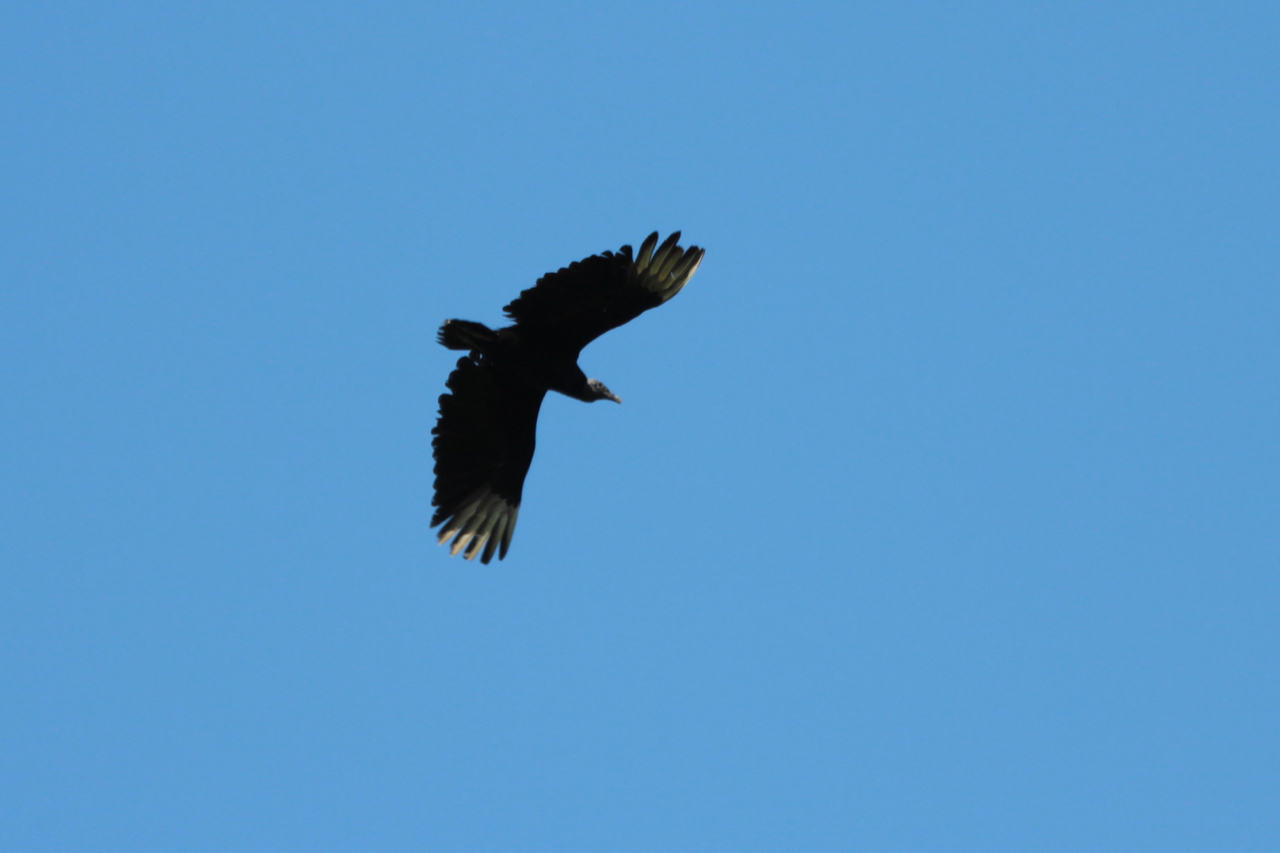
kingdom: Animalia
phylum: Chordata
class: Aves
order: Accipitriformes
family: Cathartidae
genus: Coragyps
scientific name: Coragyps atratus
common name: Black vulture
